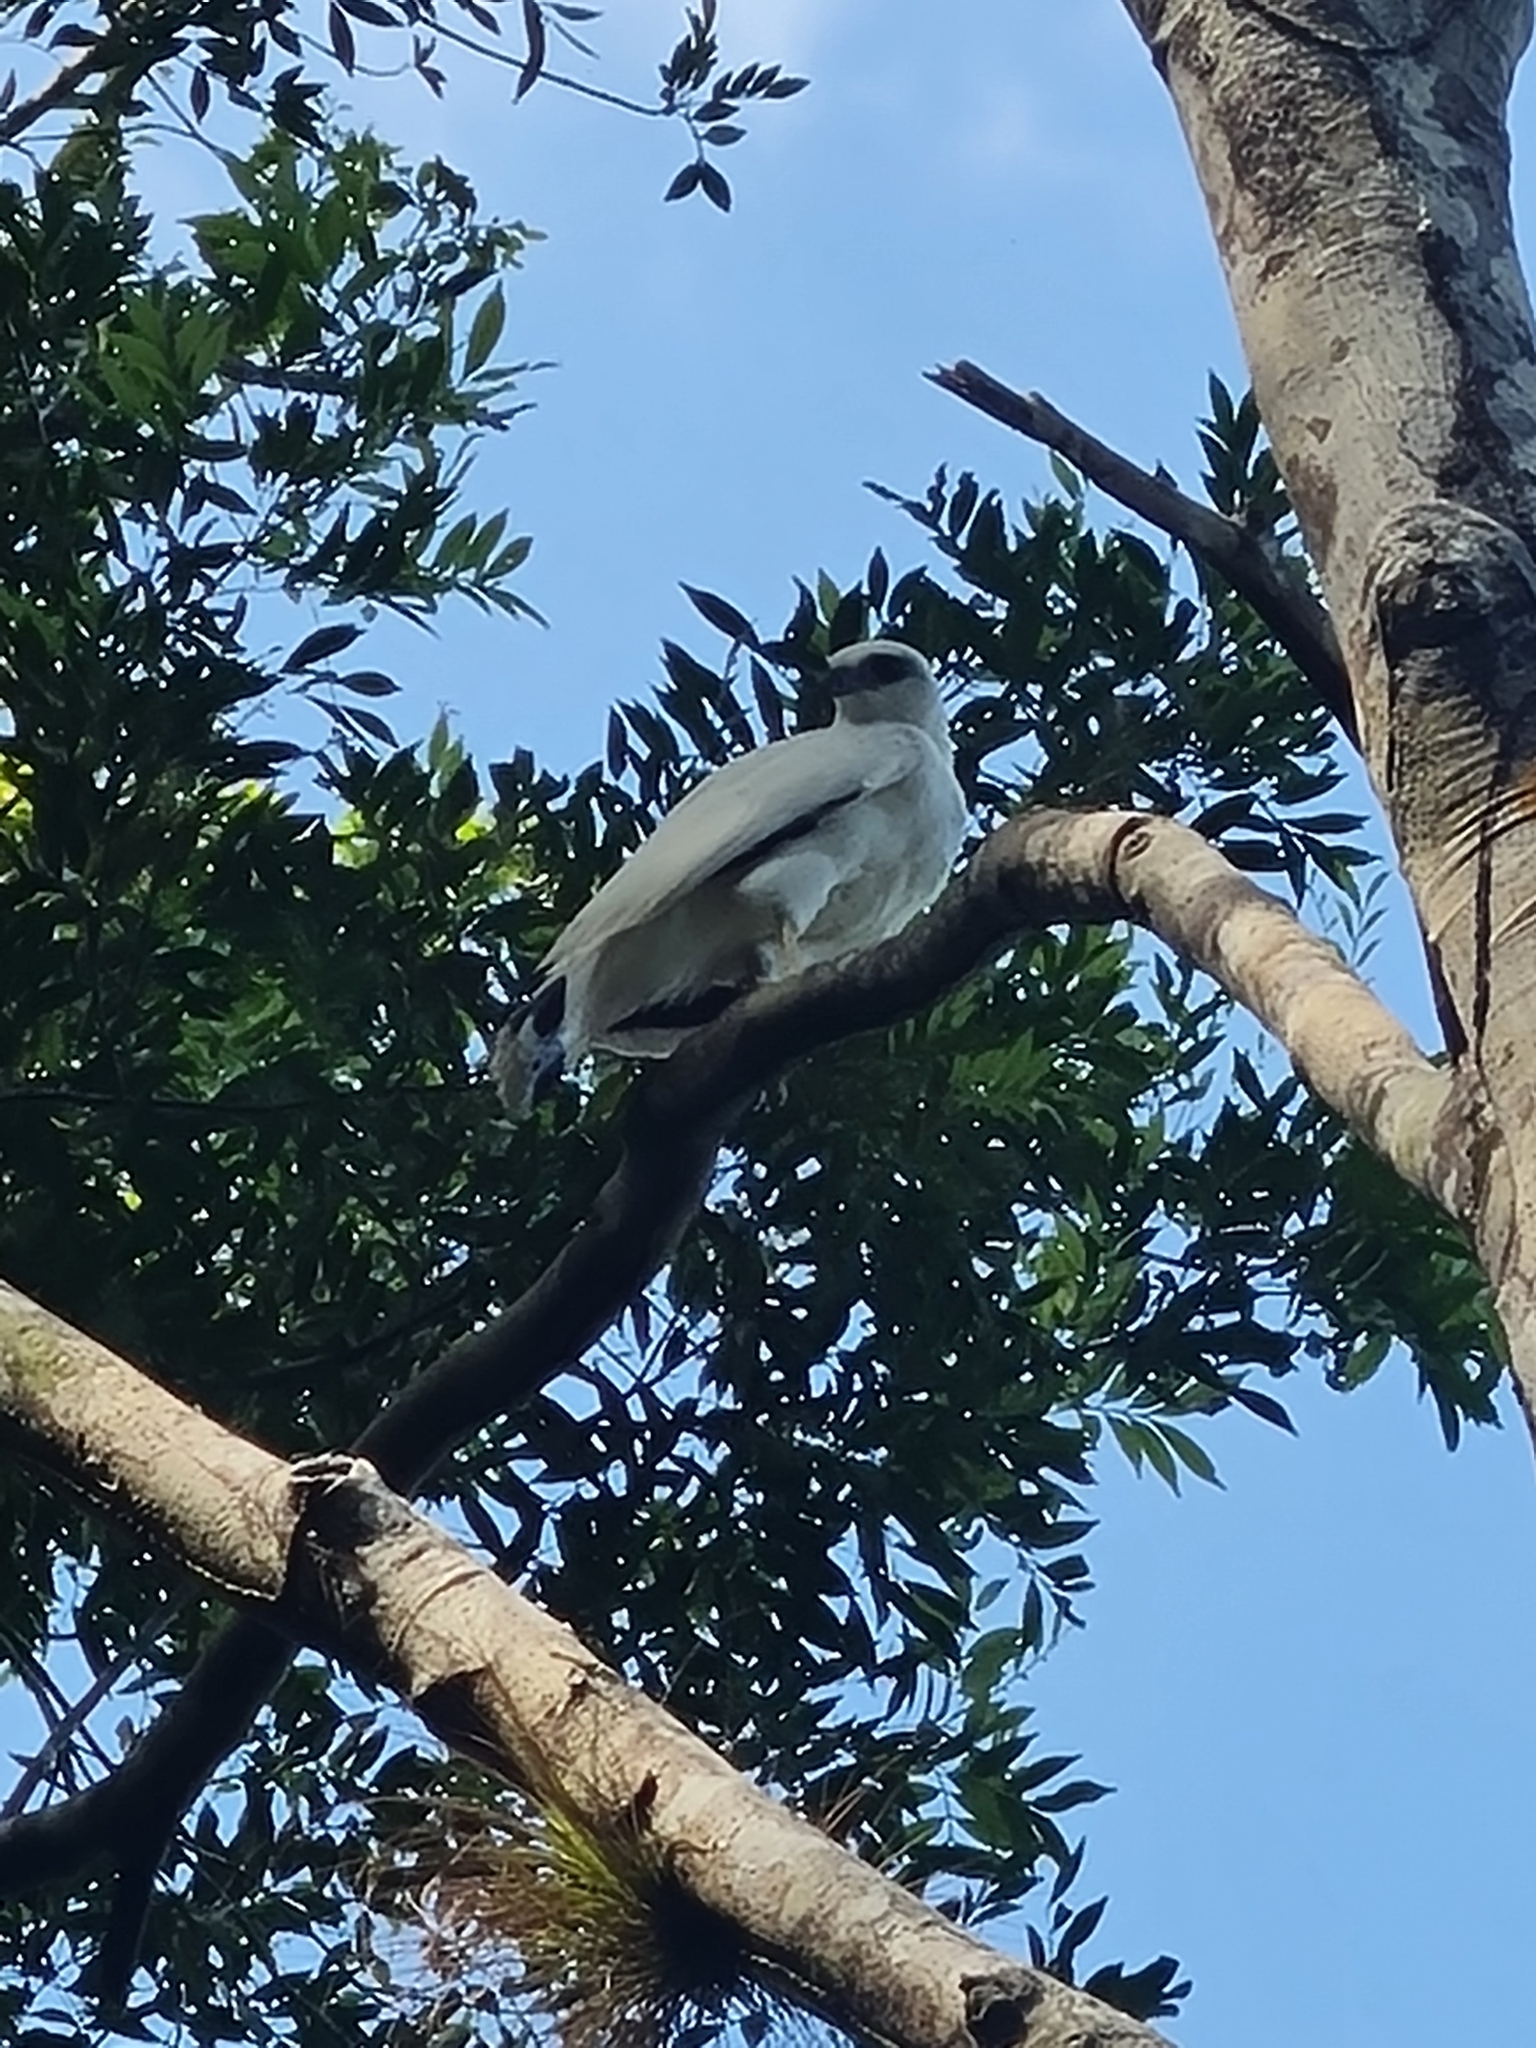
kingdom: Animalia
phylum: Chordata
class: Aves
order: Accipitriformes
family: Accipitridae
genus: Leucopternis
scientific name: Leucopternis albicollis
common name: White hawk
